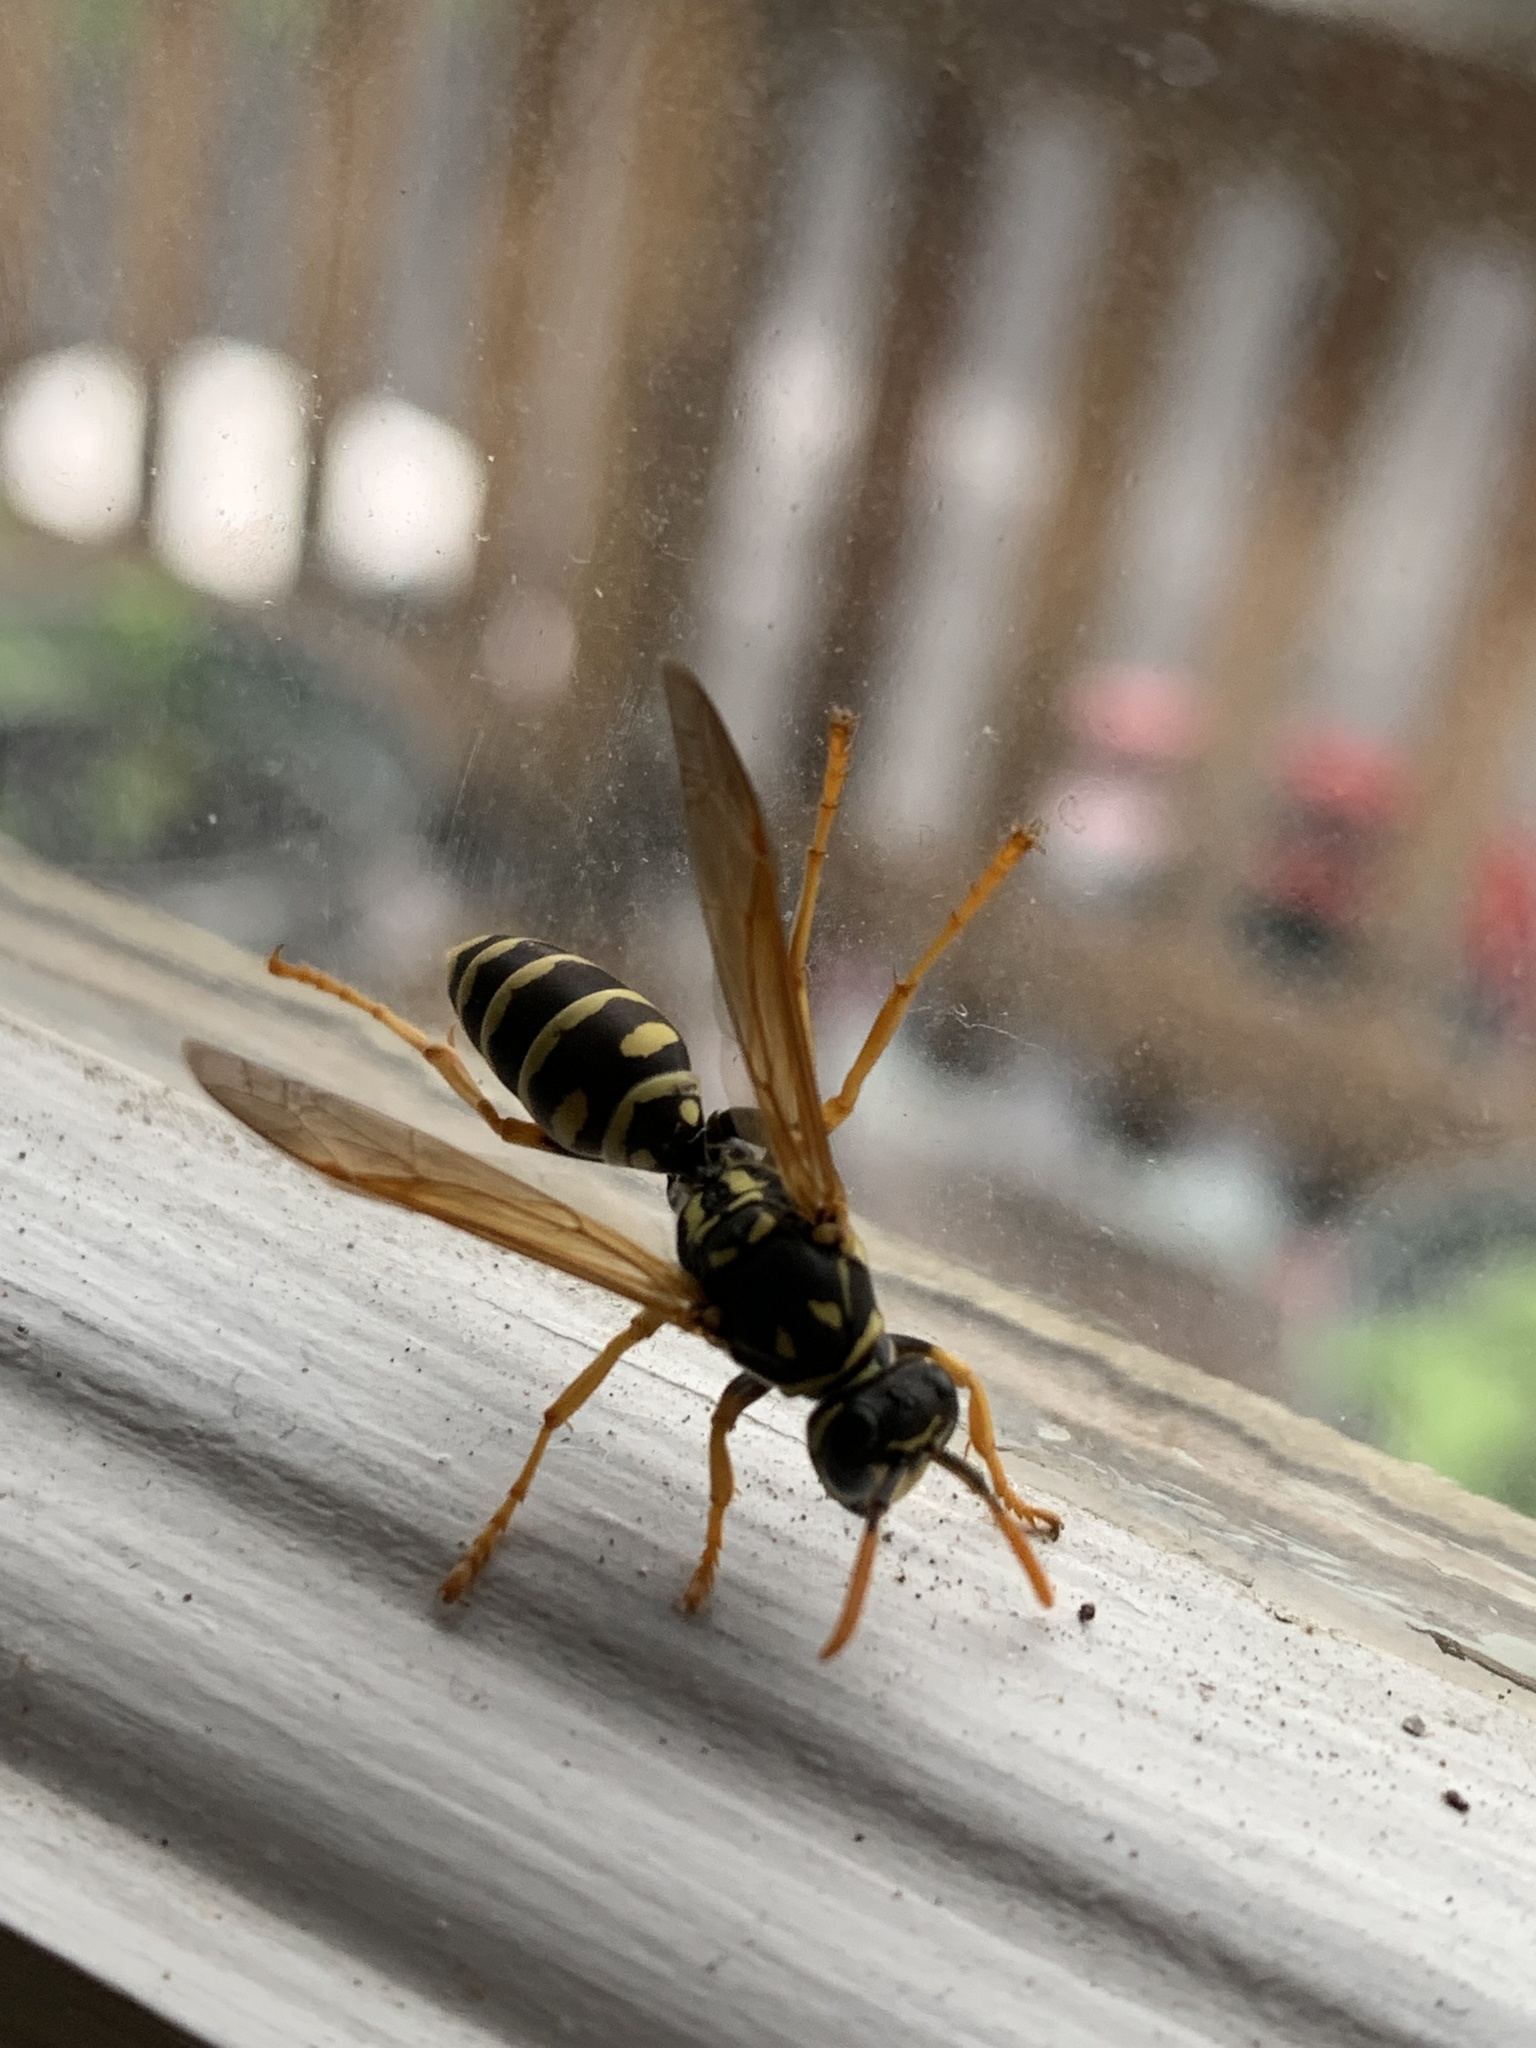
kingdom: Animalia
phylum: Arthropoda
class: Insecta
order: Hymenoptera
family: Eumenidae
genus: Polistes
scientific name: Polistes dominula
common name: Paper wasp
